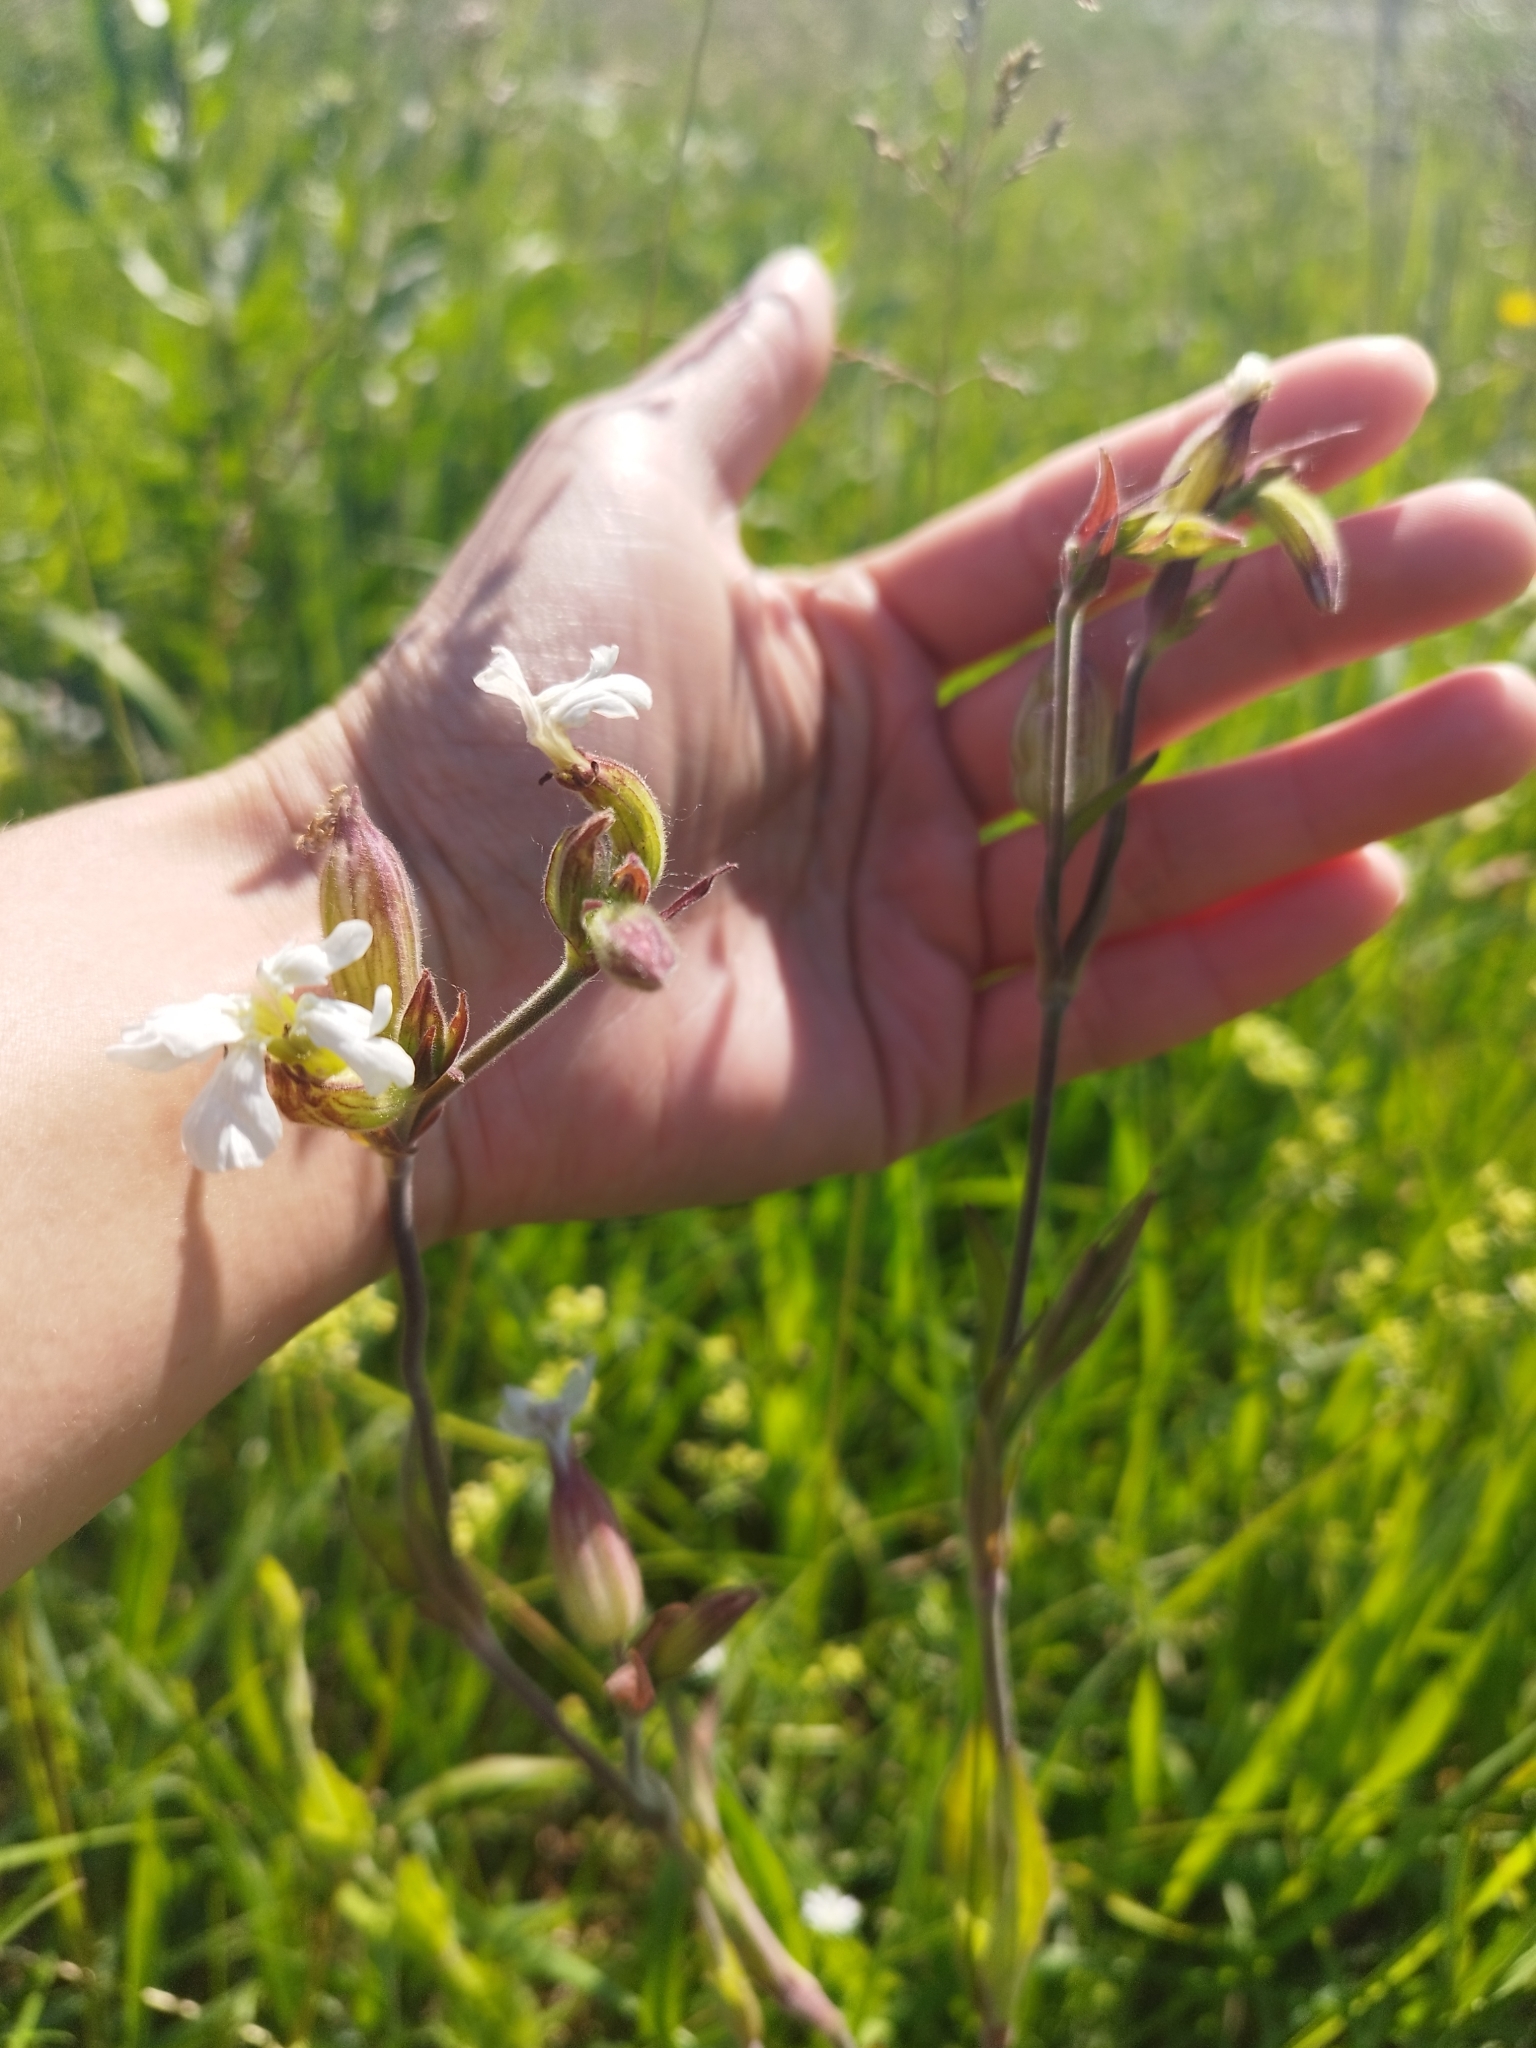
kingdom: Plantae
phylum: Tracheophyta
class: Magnoliopsida
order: Caryophyllales
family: Caryophyllaceae
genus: Silene
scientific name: Silene latifolia
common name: White campion
